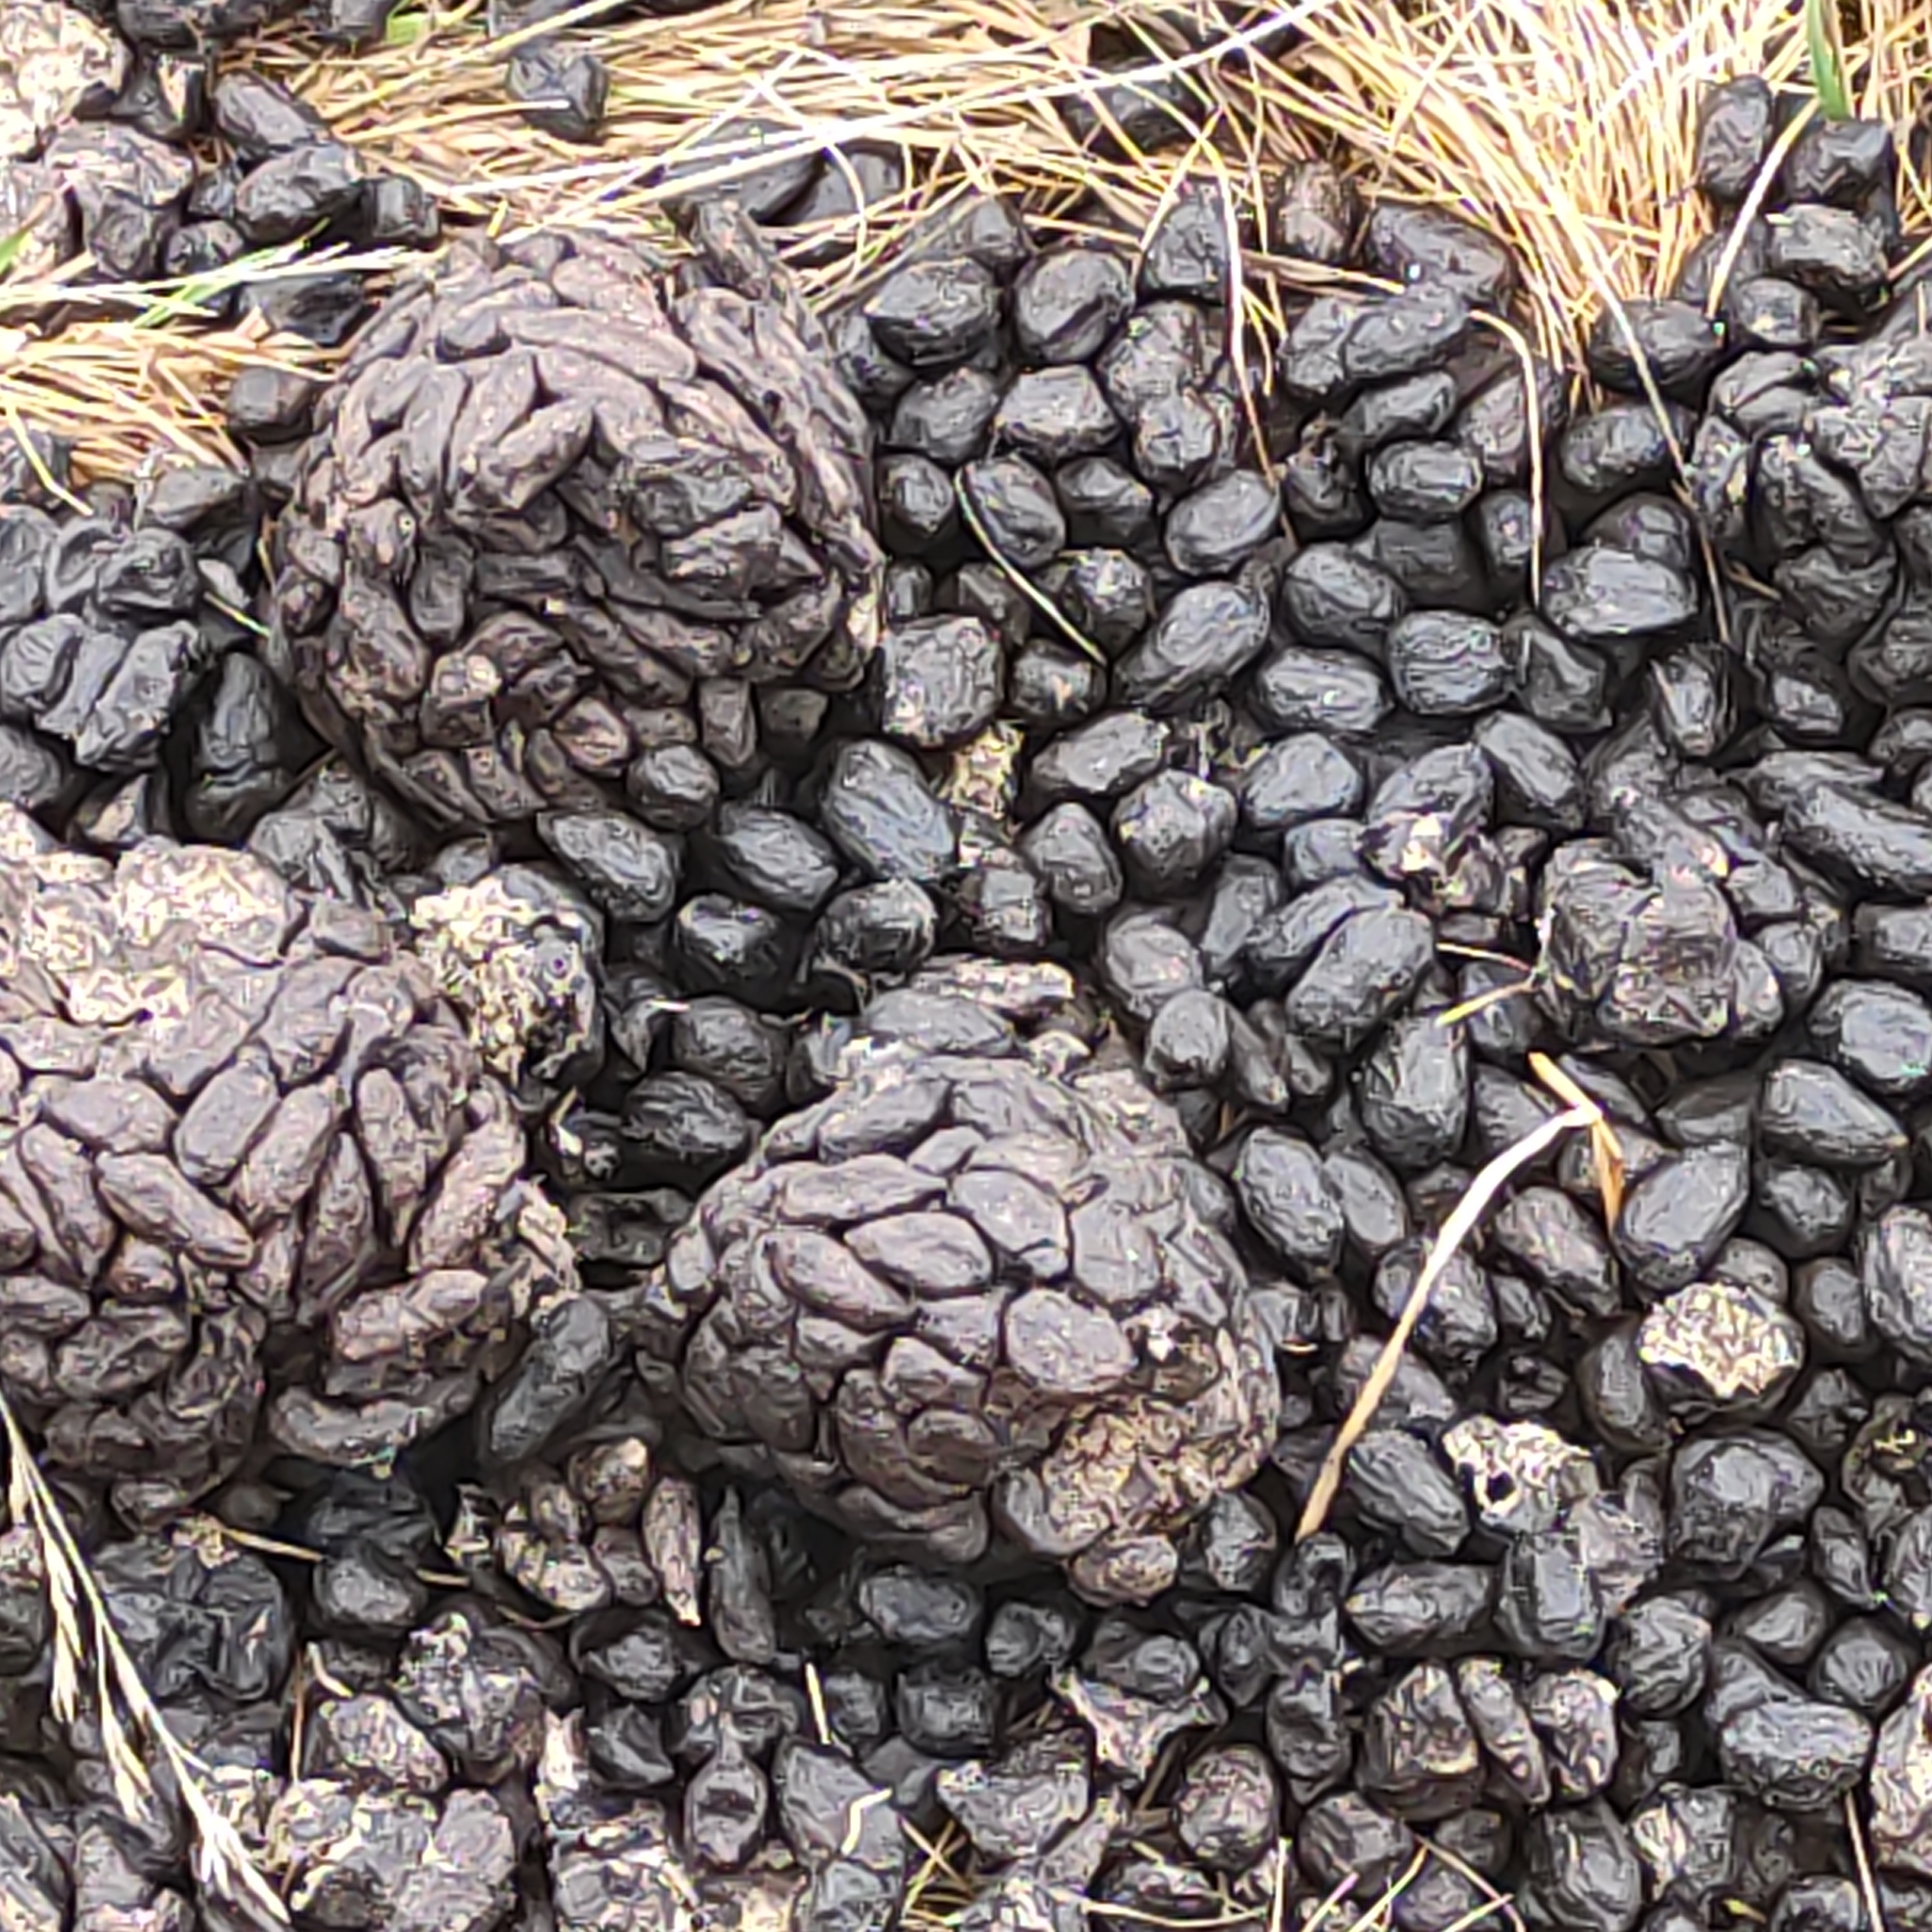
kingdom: Animalia
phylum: Chordata
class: Mammalia
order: Artiodactyla
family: Bovidae
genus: Ovis
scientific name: Ovis aries
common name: Domestic sheep
